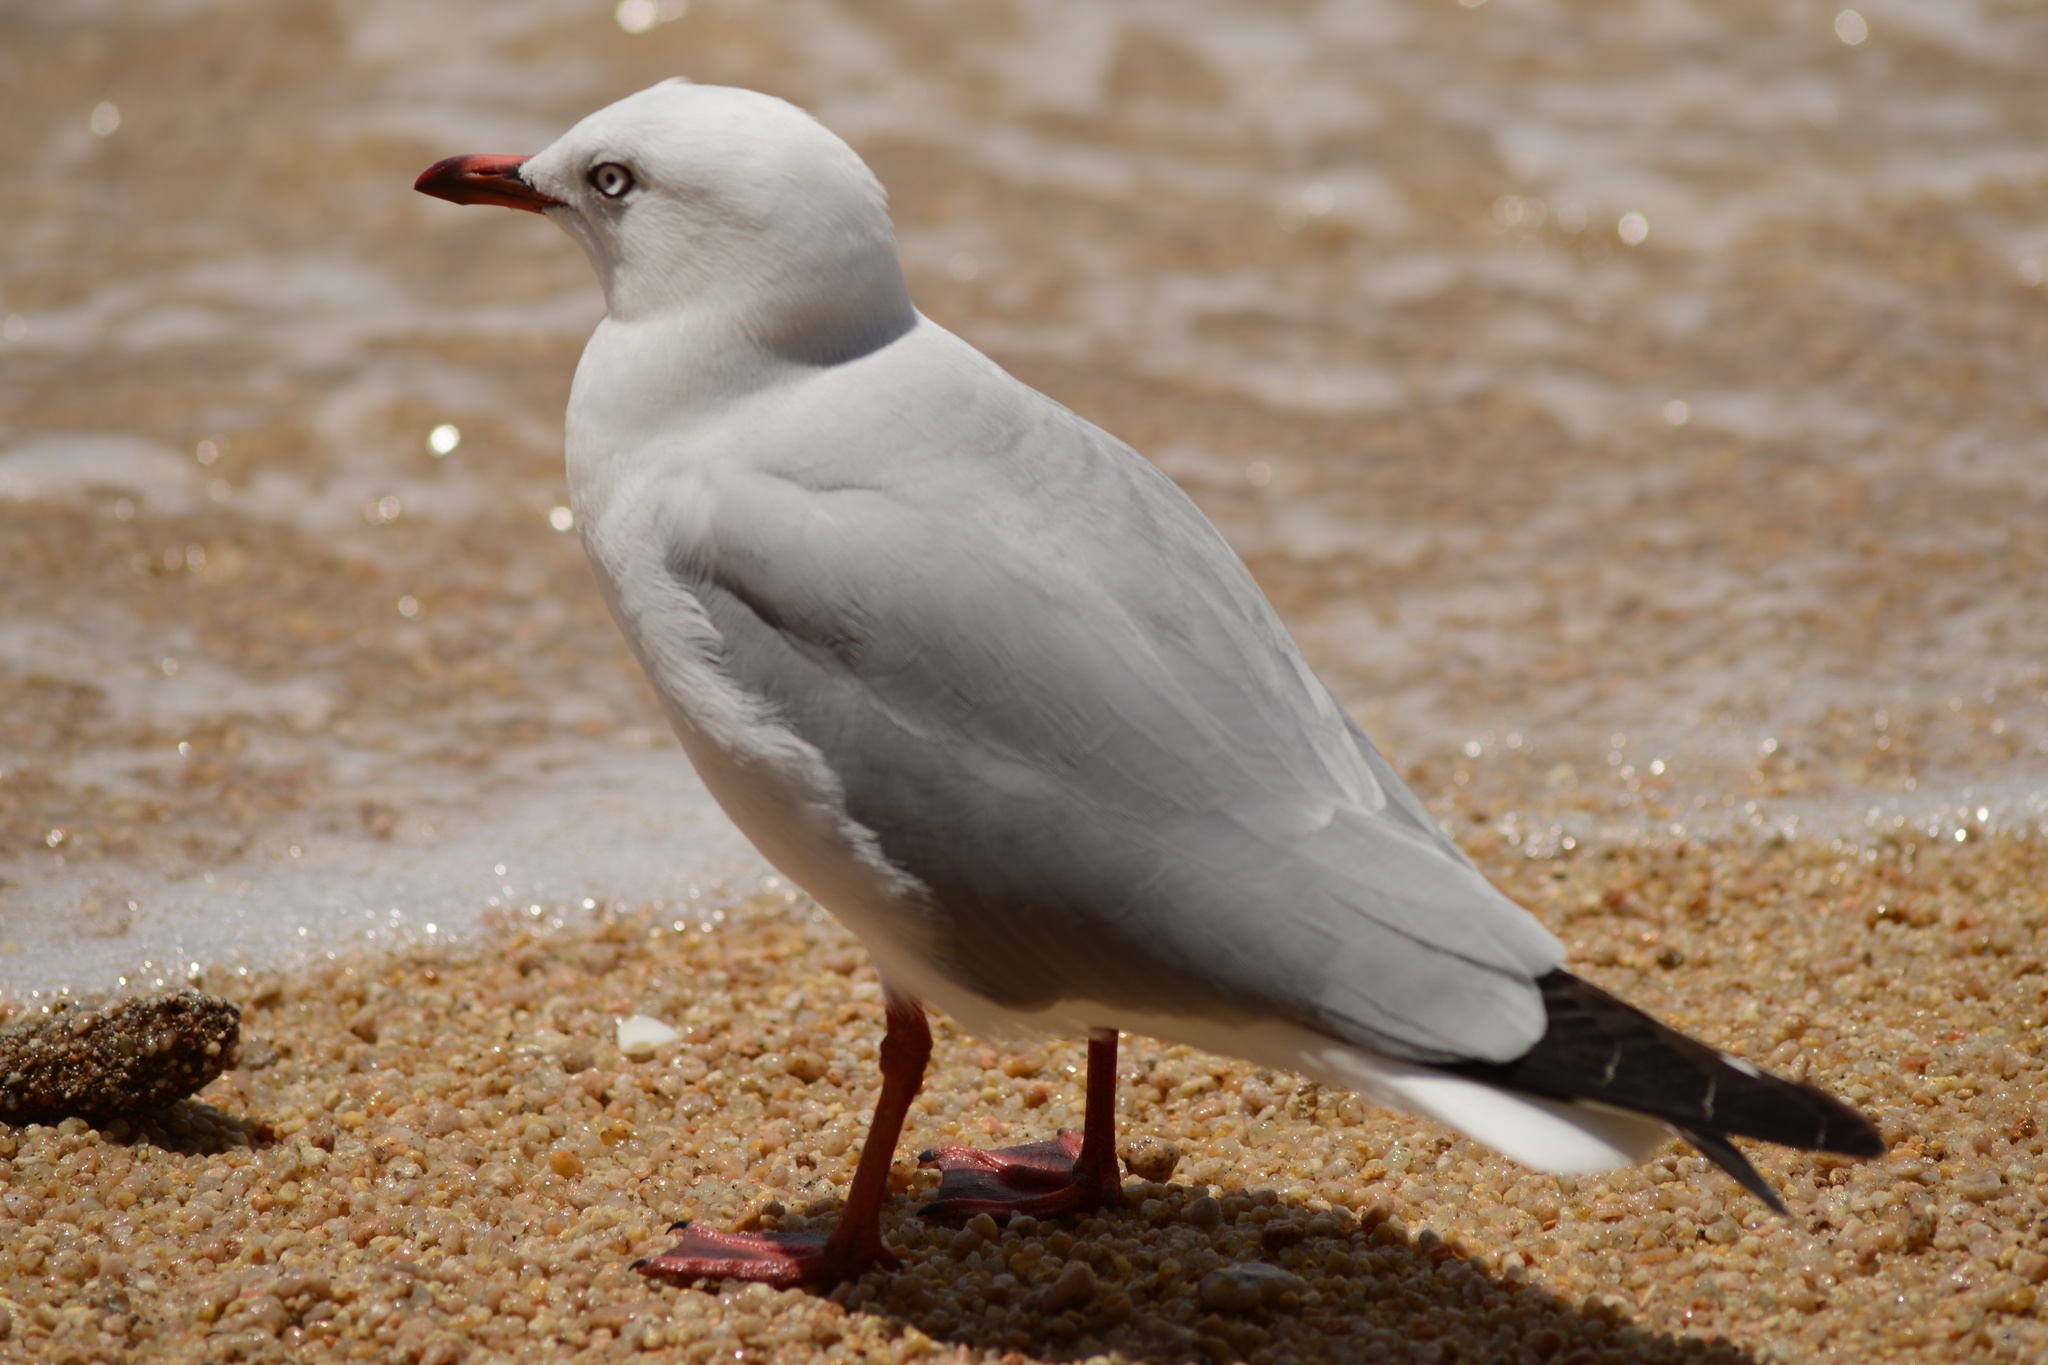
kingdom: Animalia
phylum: Chordata
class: Aves
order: Charadriiformes
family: Laridae
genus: Chroicocephalus
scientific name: Chroicocephalus novaehollandiae
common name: Silver gull
